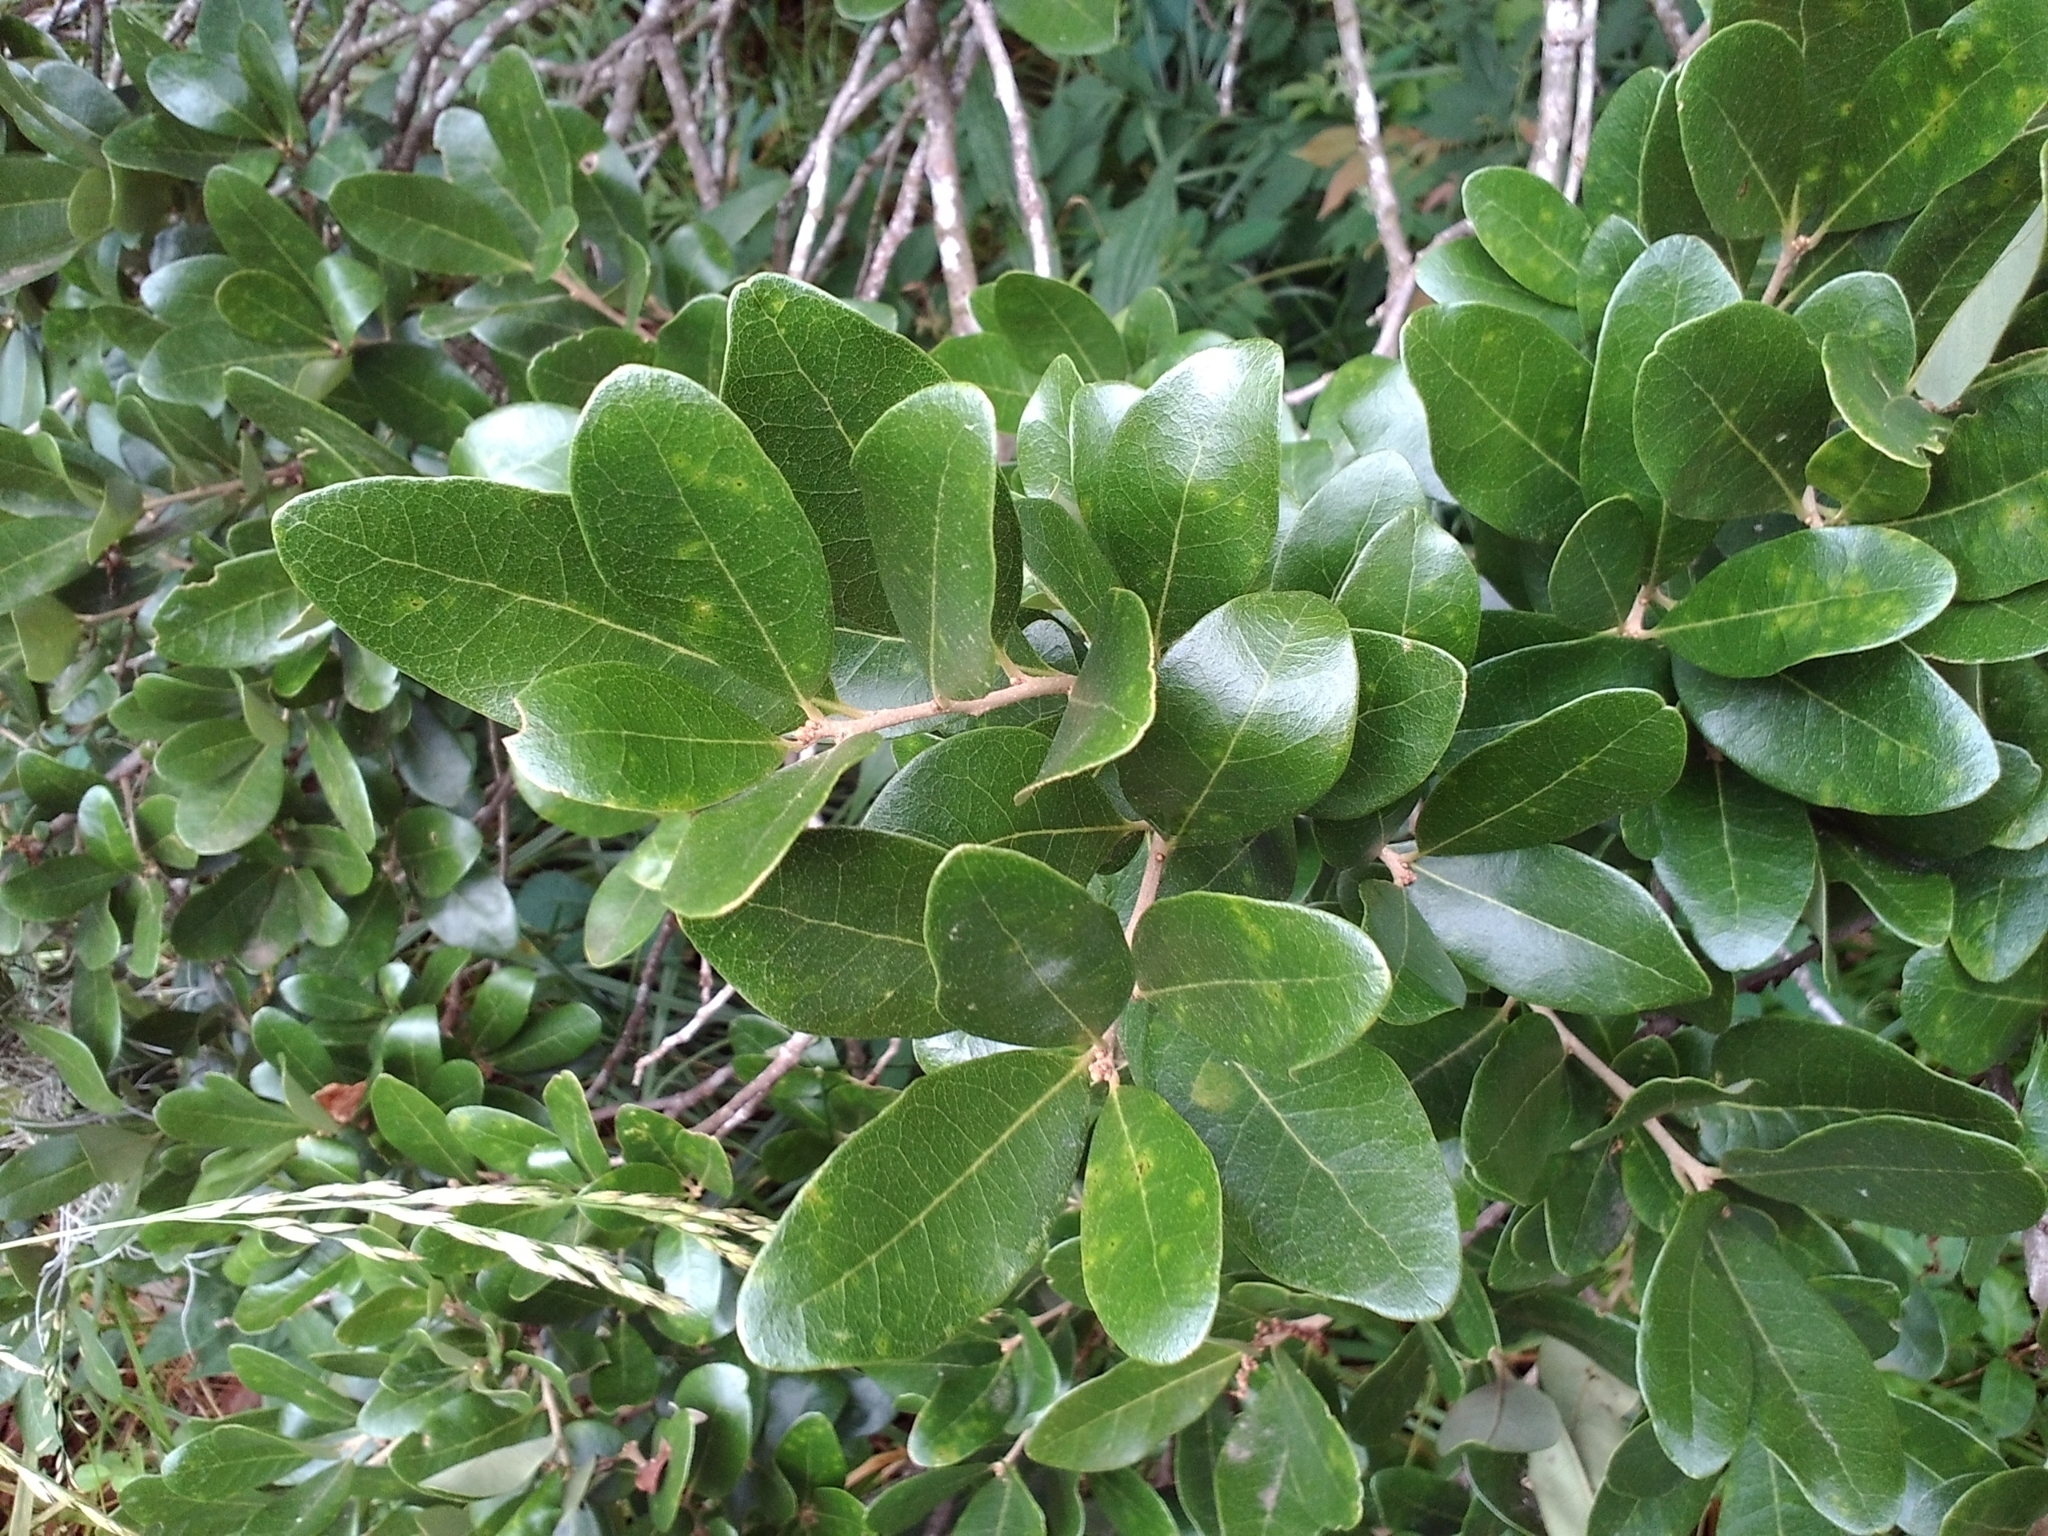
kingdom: Plantae
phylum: Tracheophyta
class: Magnoliopsida
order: Fagales
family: Fagaceae
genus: Quercus
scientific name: Quercus virginiana
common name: Southern live oak
